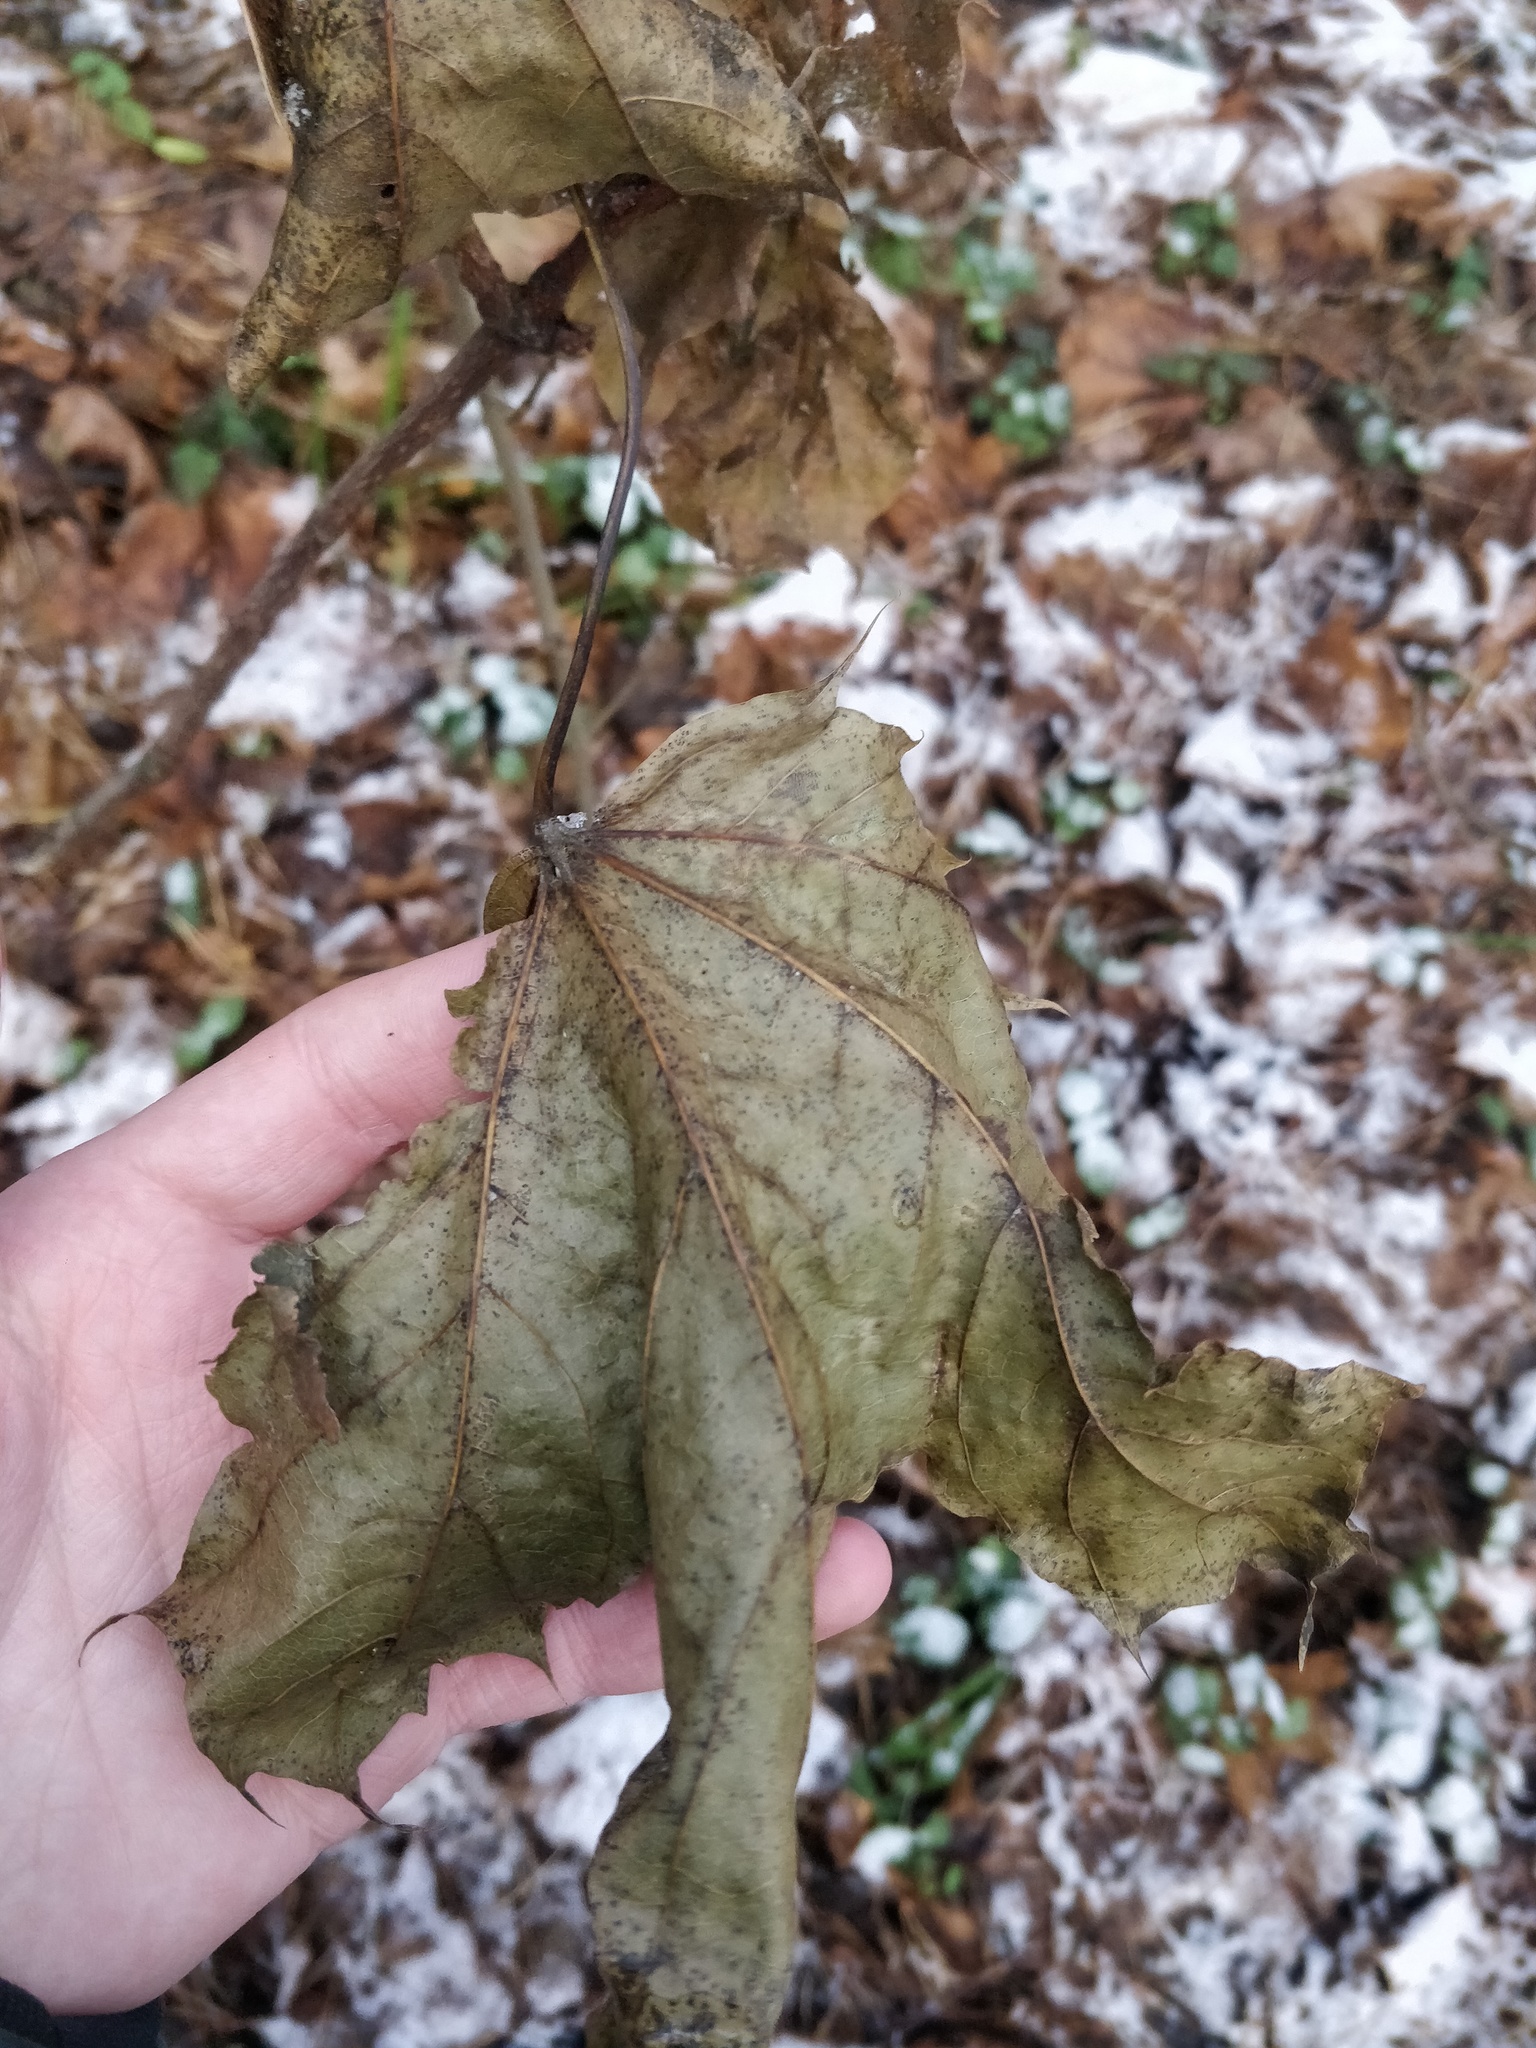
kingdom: Plantae
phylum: Tracheophyta
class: Magnoliopsida
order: Sapindales
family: Sapindaceae
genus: Acer
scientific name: Acer platanoides
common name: Norway maple
